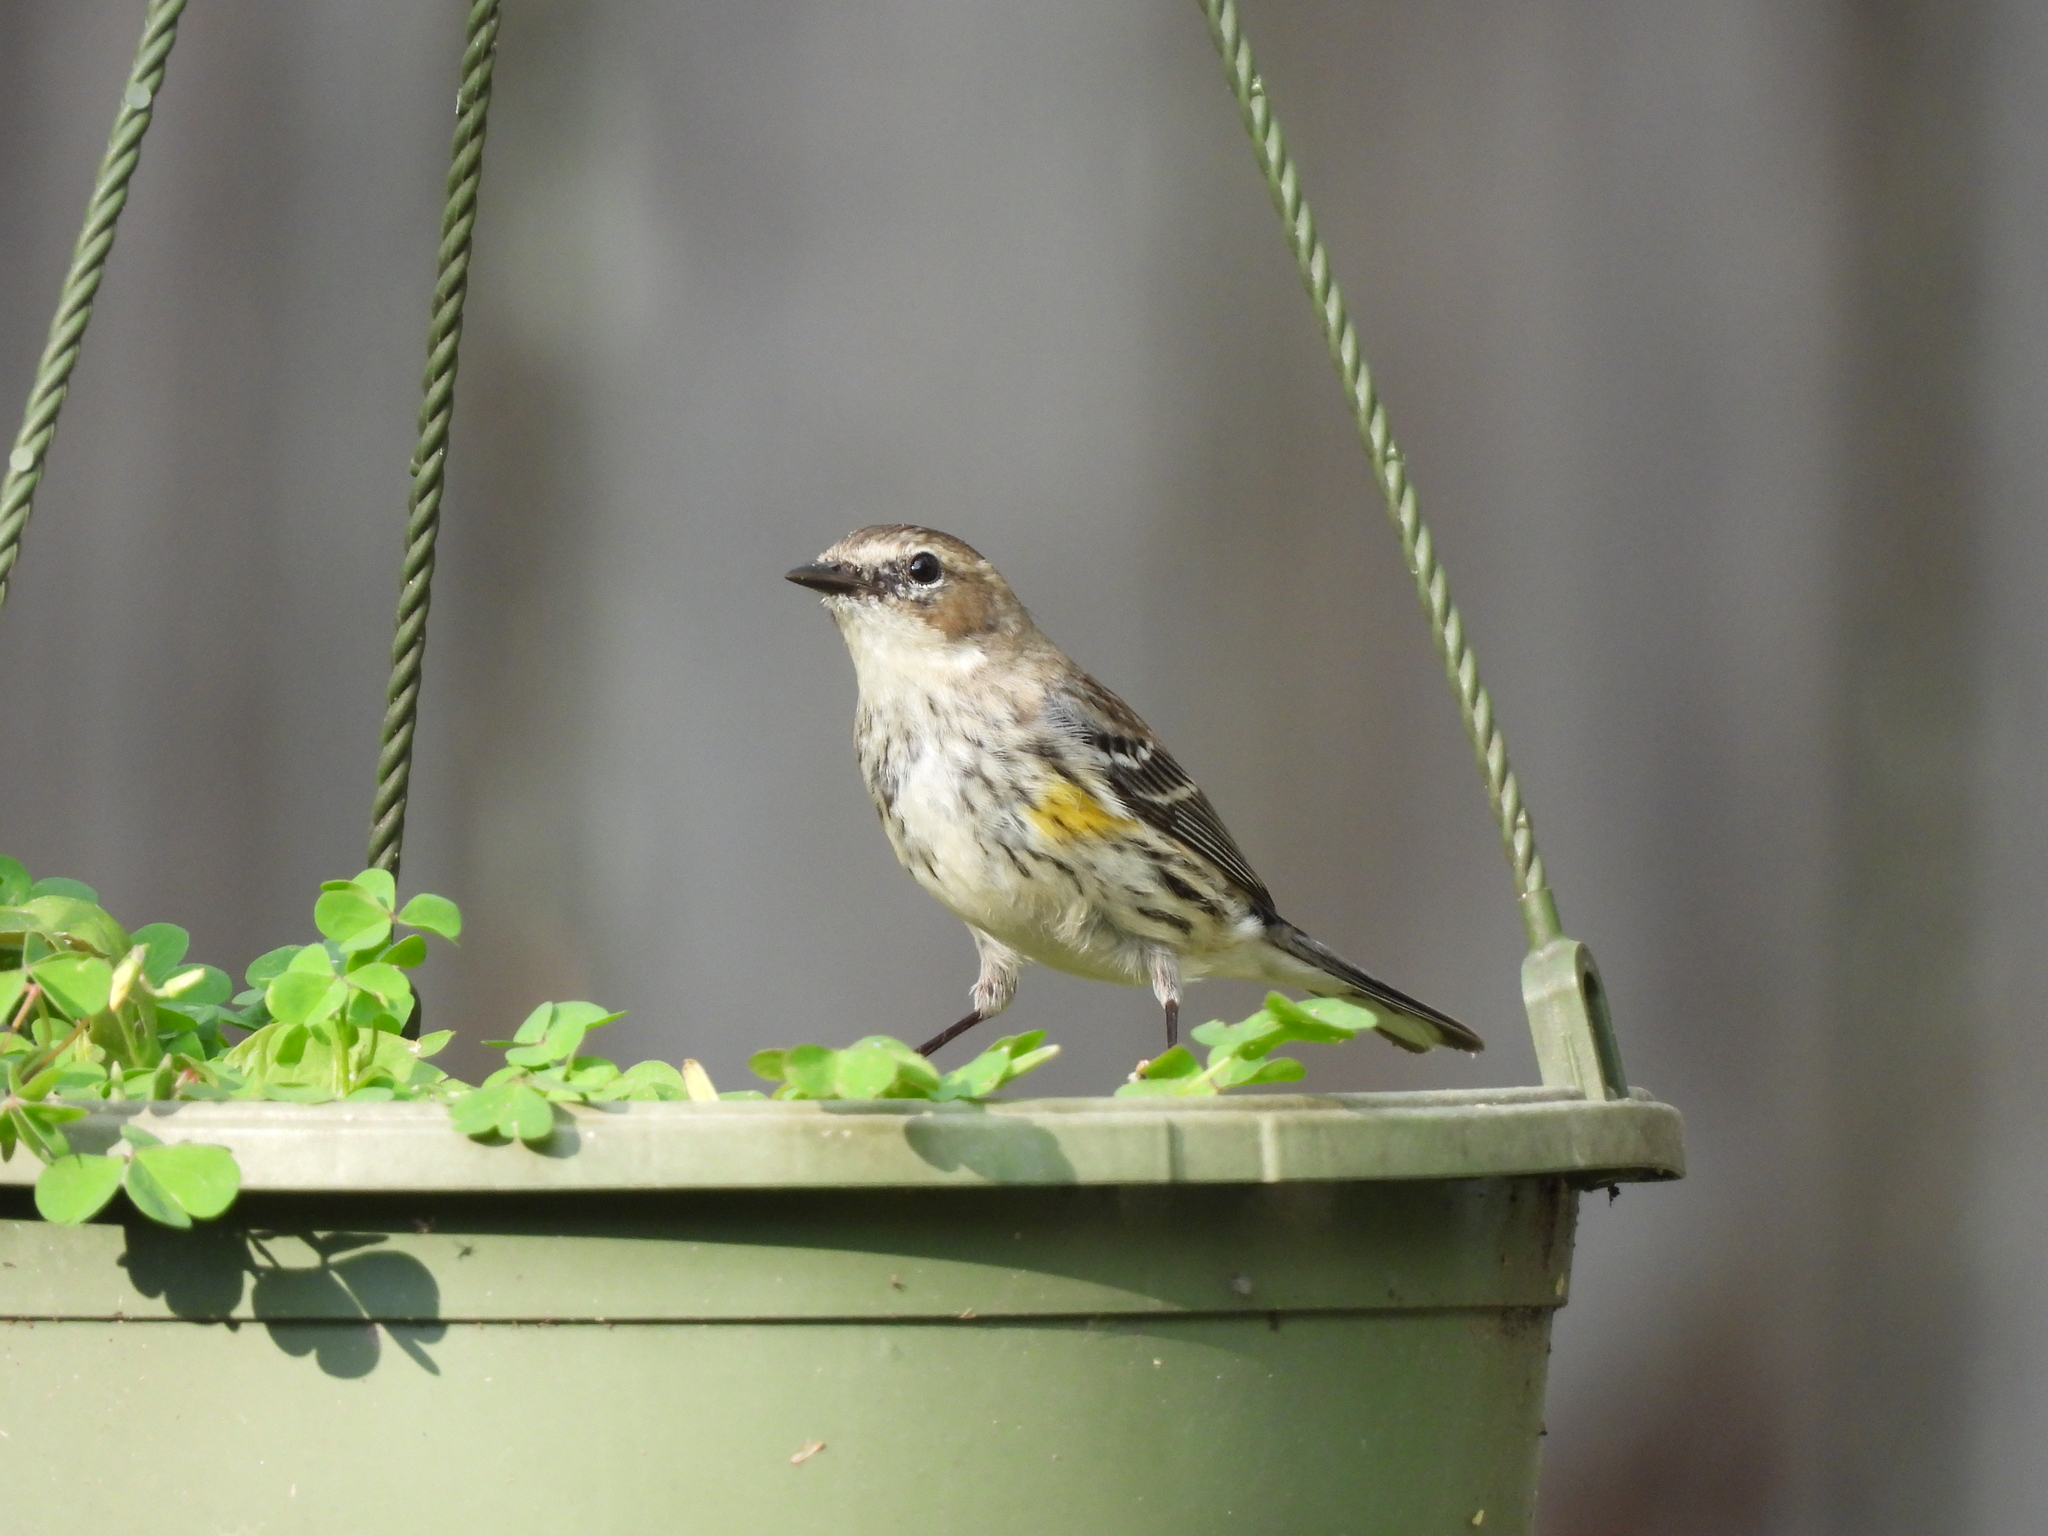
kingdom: Animalia
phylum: Chordata
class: Aves
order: Passeriformes
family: Parulidae
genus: Setophaga
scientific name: Setophaga coronata
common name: Myrtle warbler
